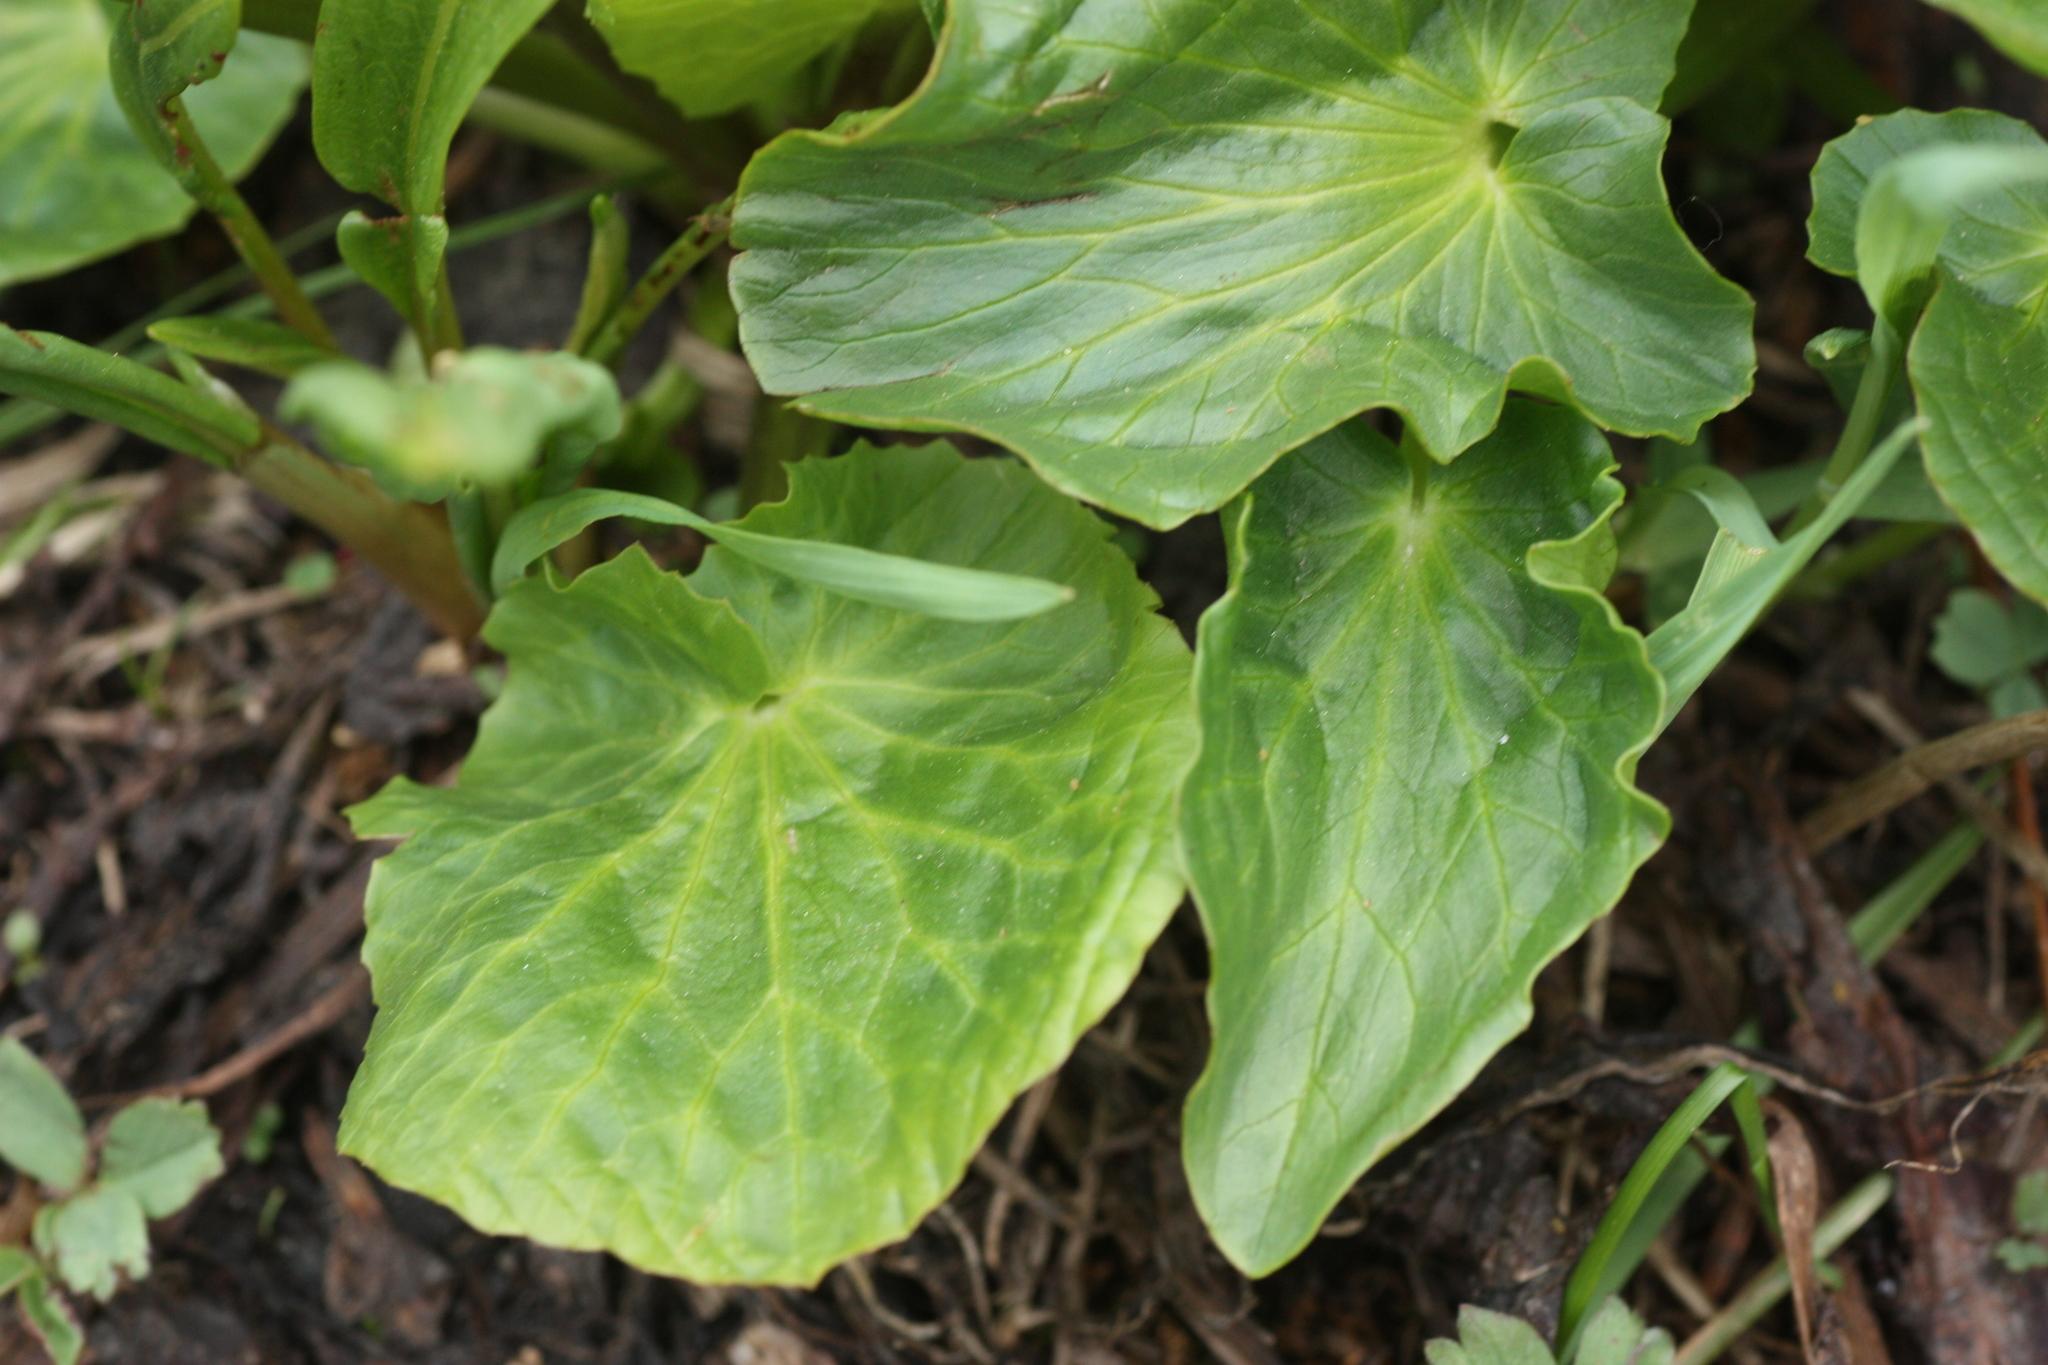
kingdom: Plantae
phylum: Tracheophyta
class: Magnoliopsida
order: Ranunculales
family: Ranunculaceae
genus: Caltha
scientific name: Caltha leptosepala
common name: Elkslip
